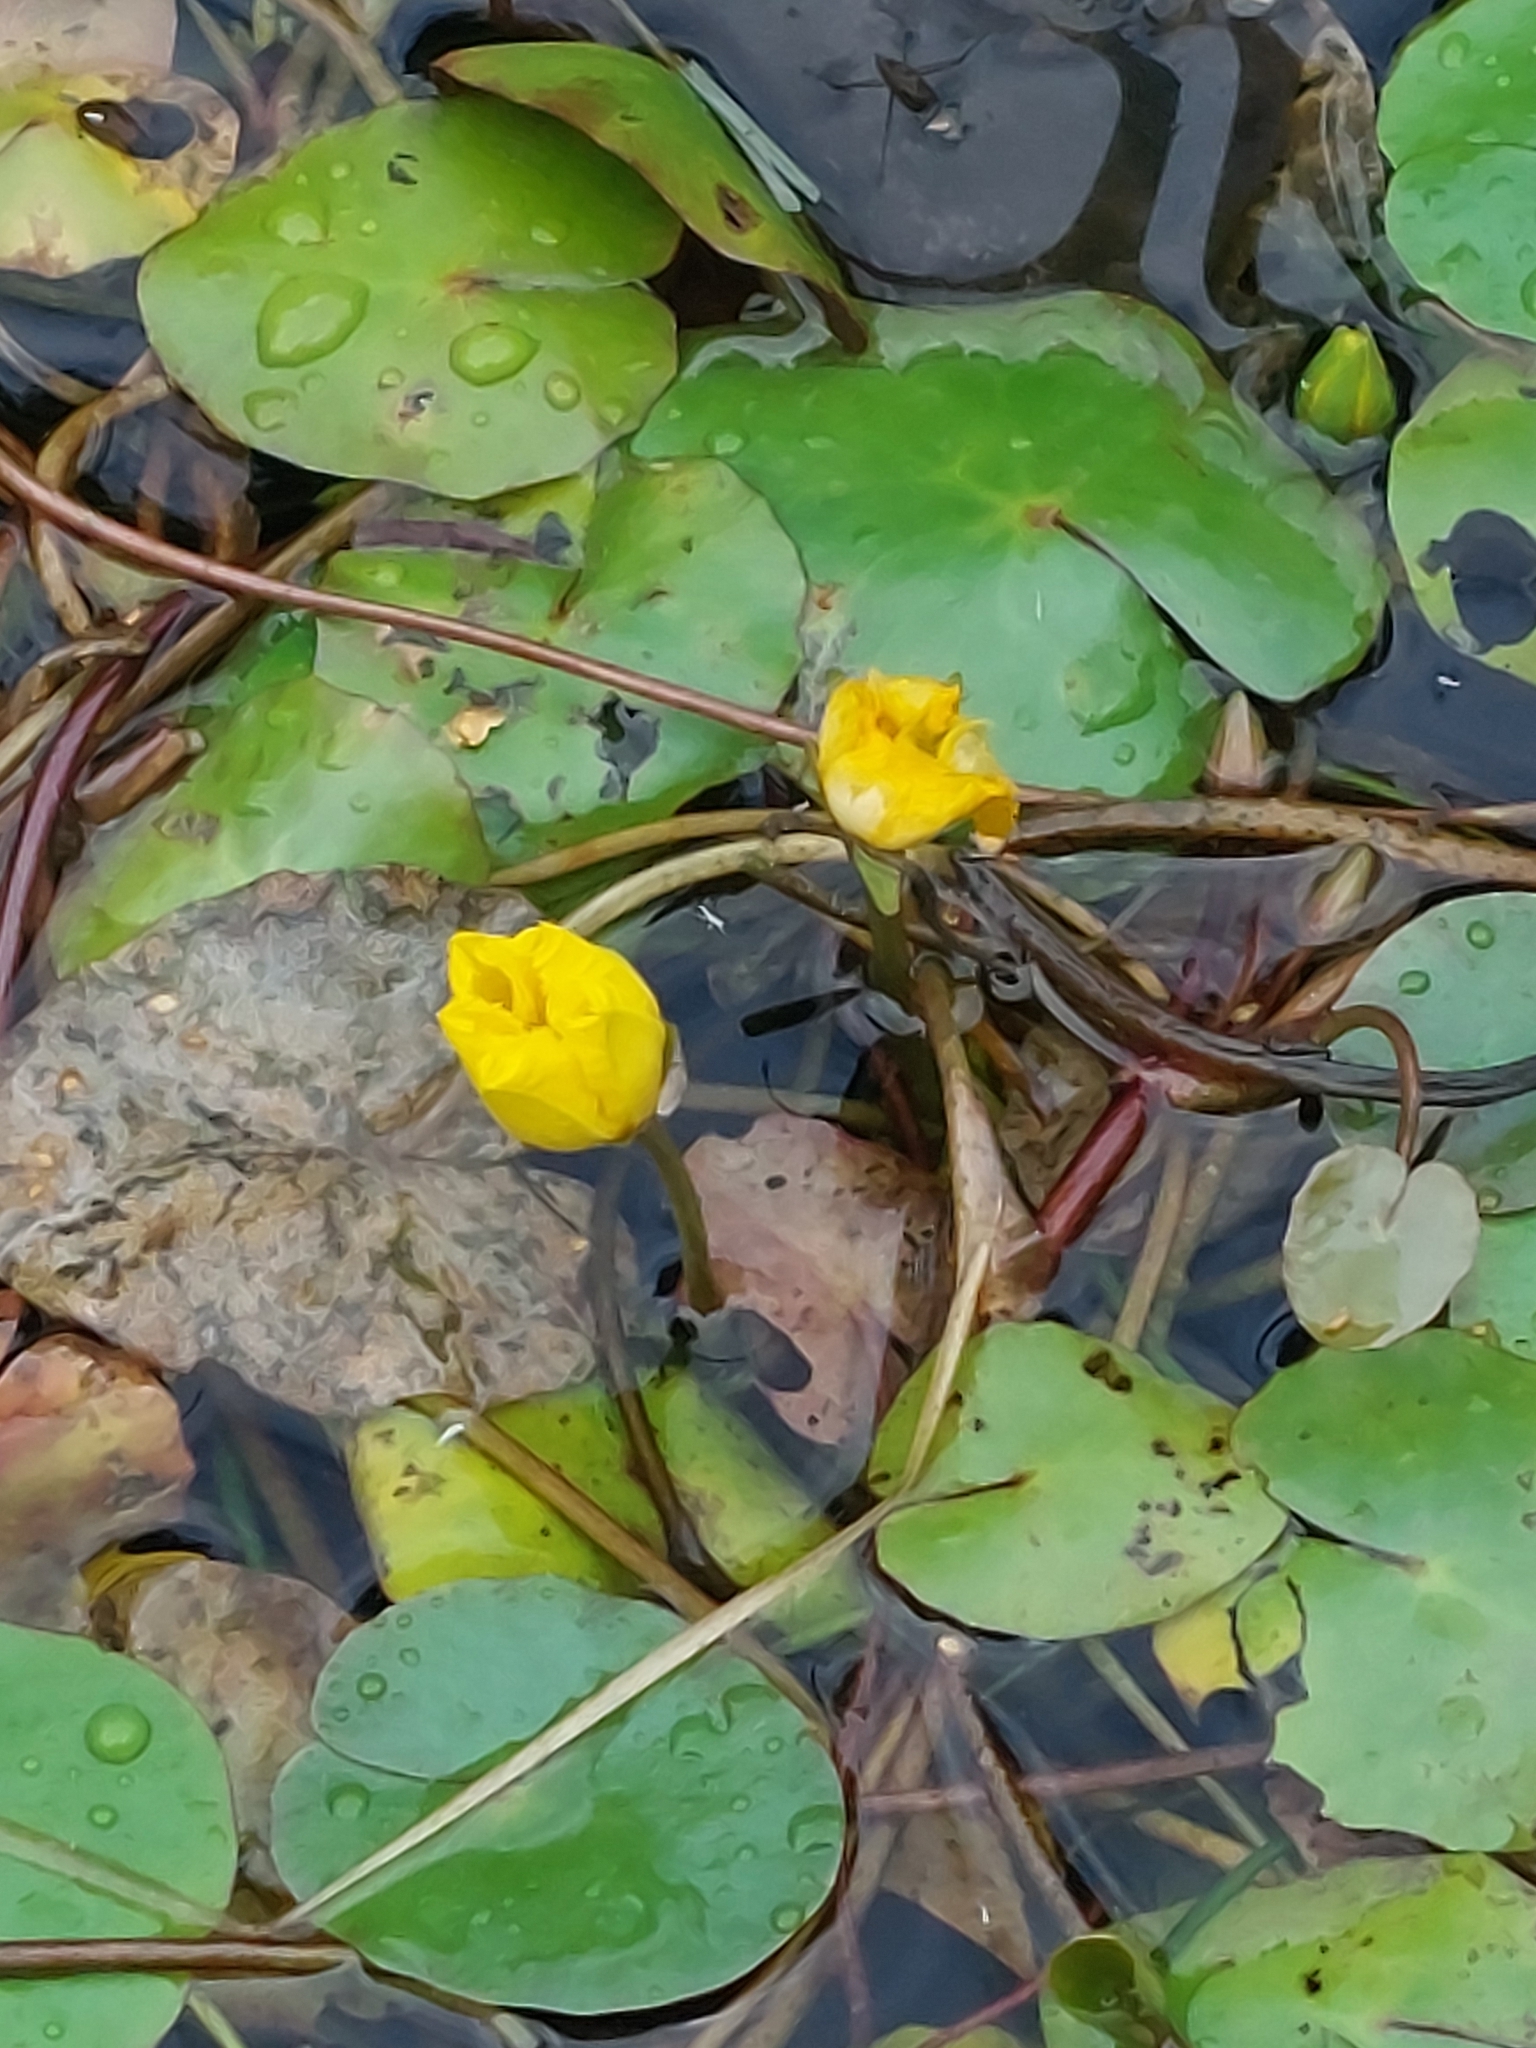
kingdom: Plantae
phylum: Tracheophyta
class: Magnoliopsida
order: Asterales
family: Menyanthaceae
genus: Nymphoides
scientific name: Nymphoides peltata
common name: Fringed water-lily
